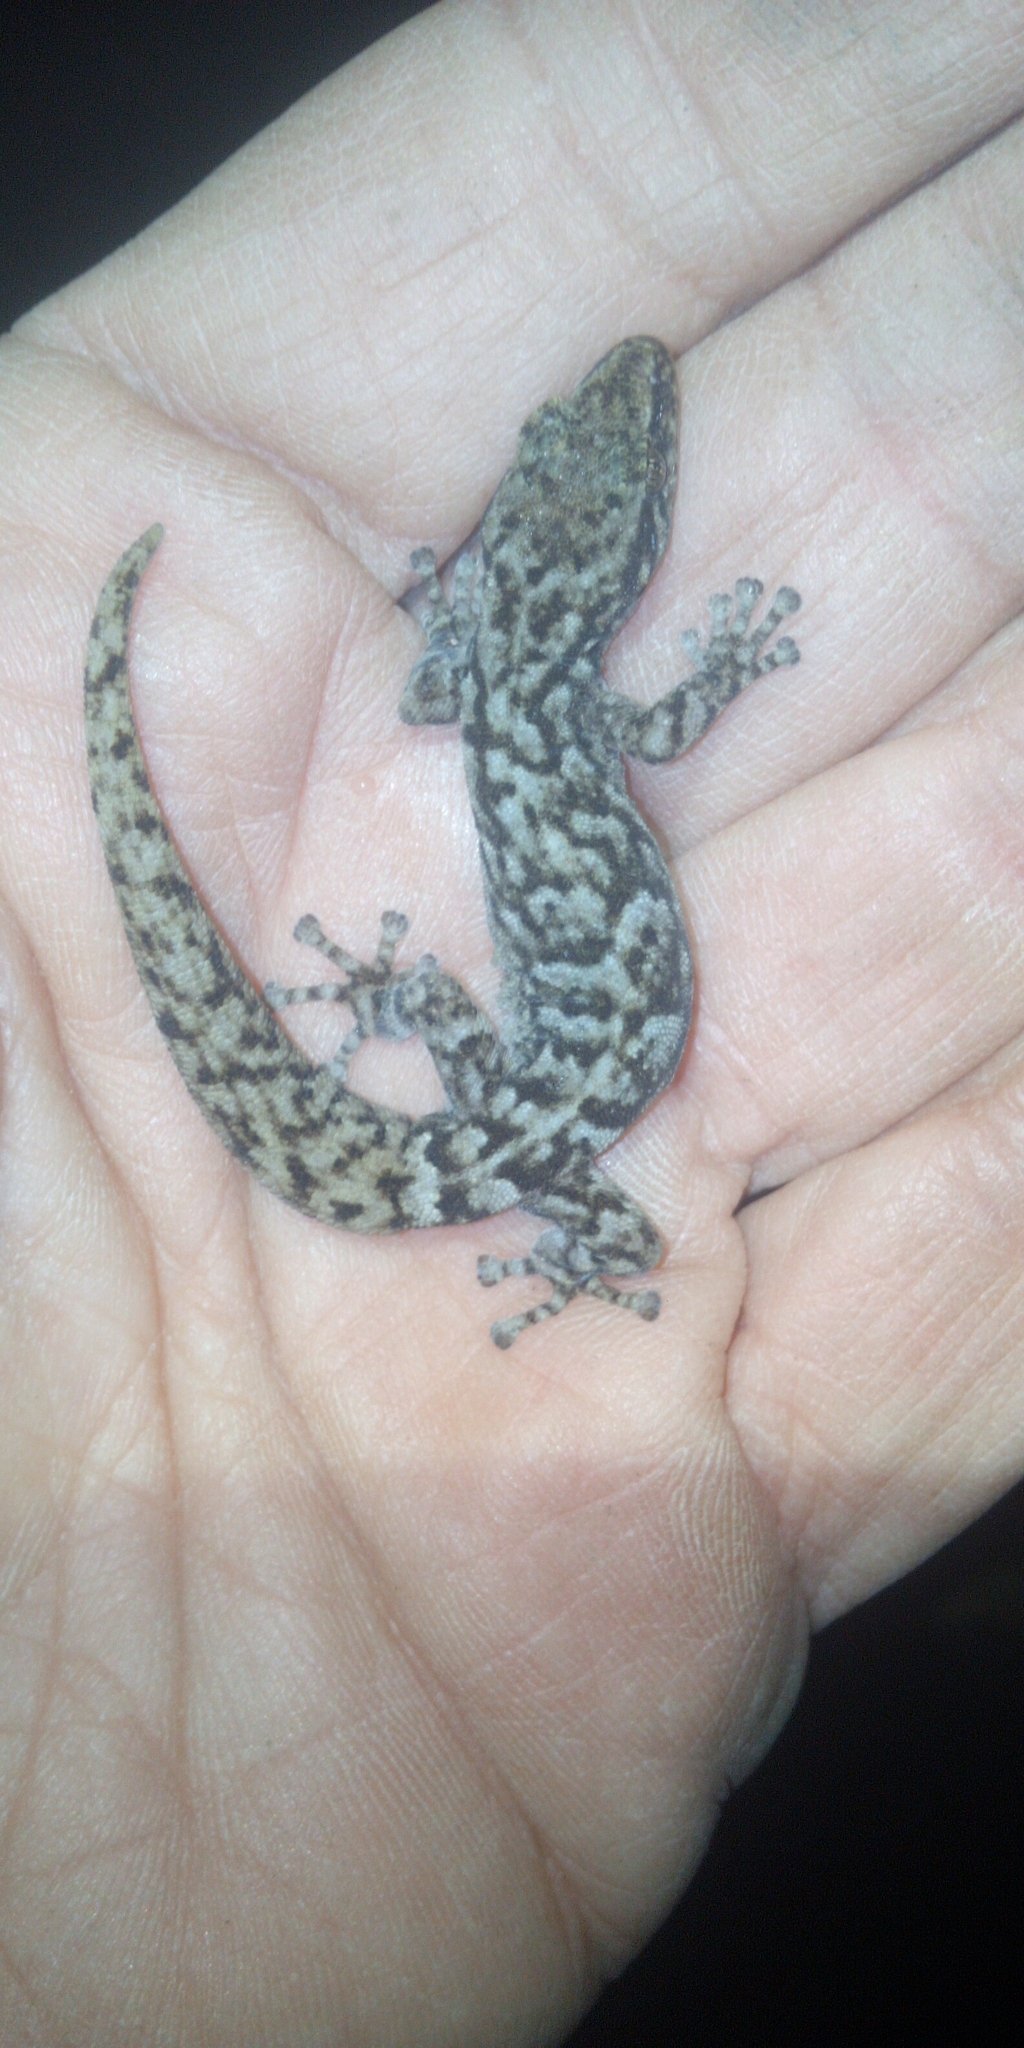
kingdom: Animalia
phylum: Chordata
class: Squamata
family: Gekkonidae
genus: Afrogecko
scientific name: Afrogecko porphyreus
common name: Marbled leaf-toed gecko
